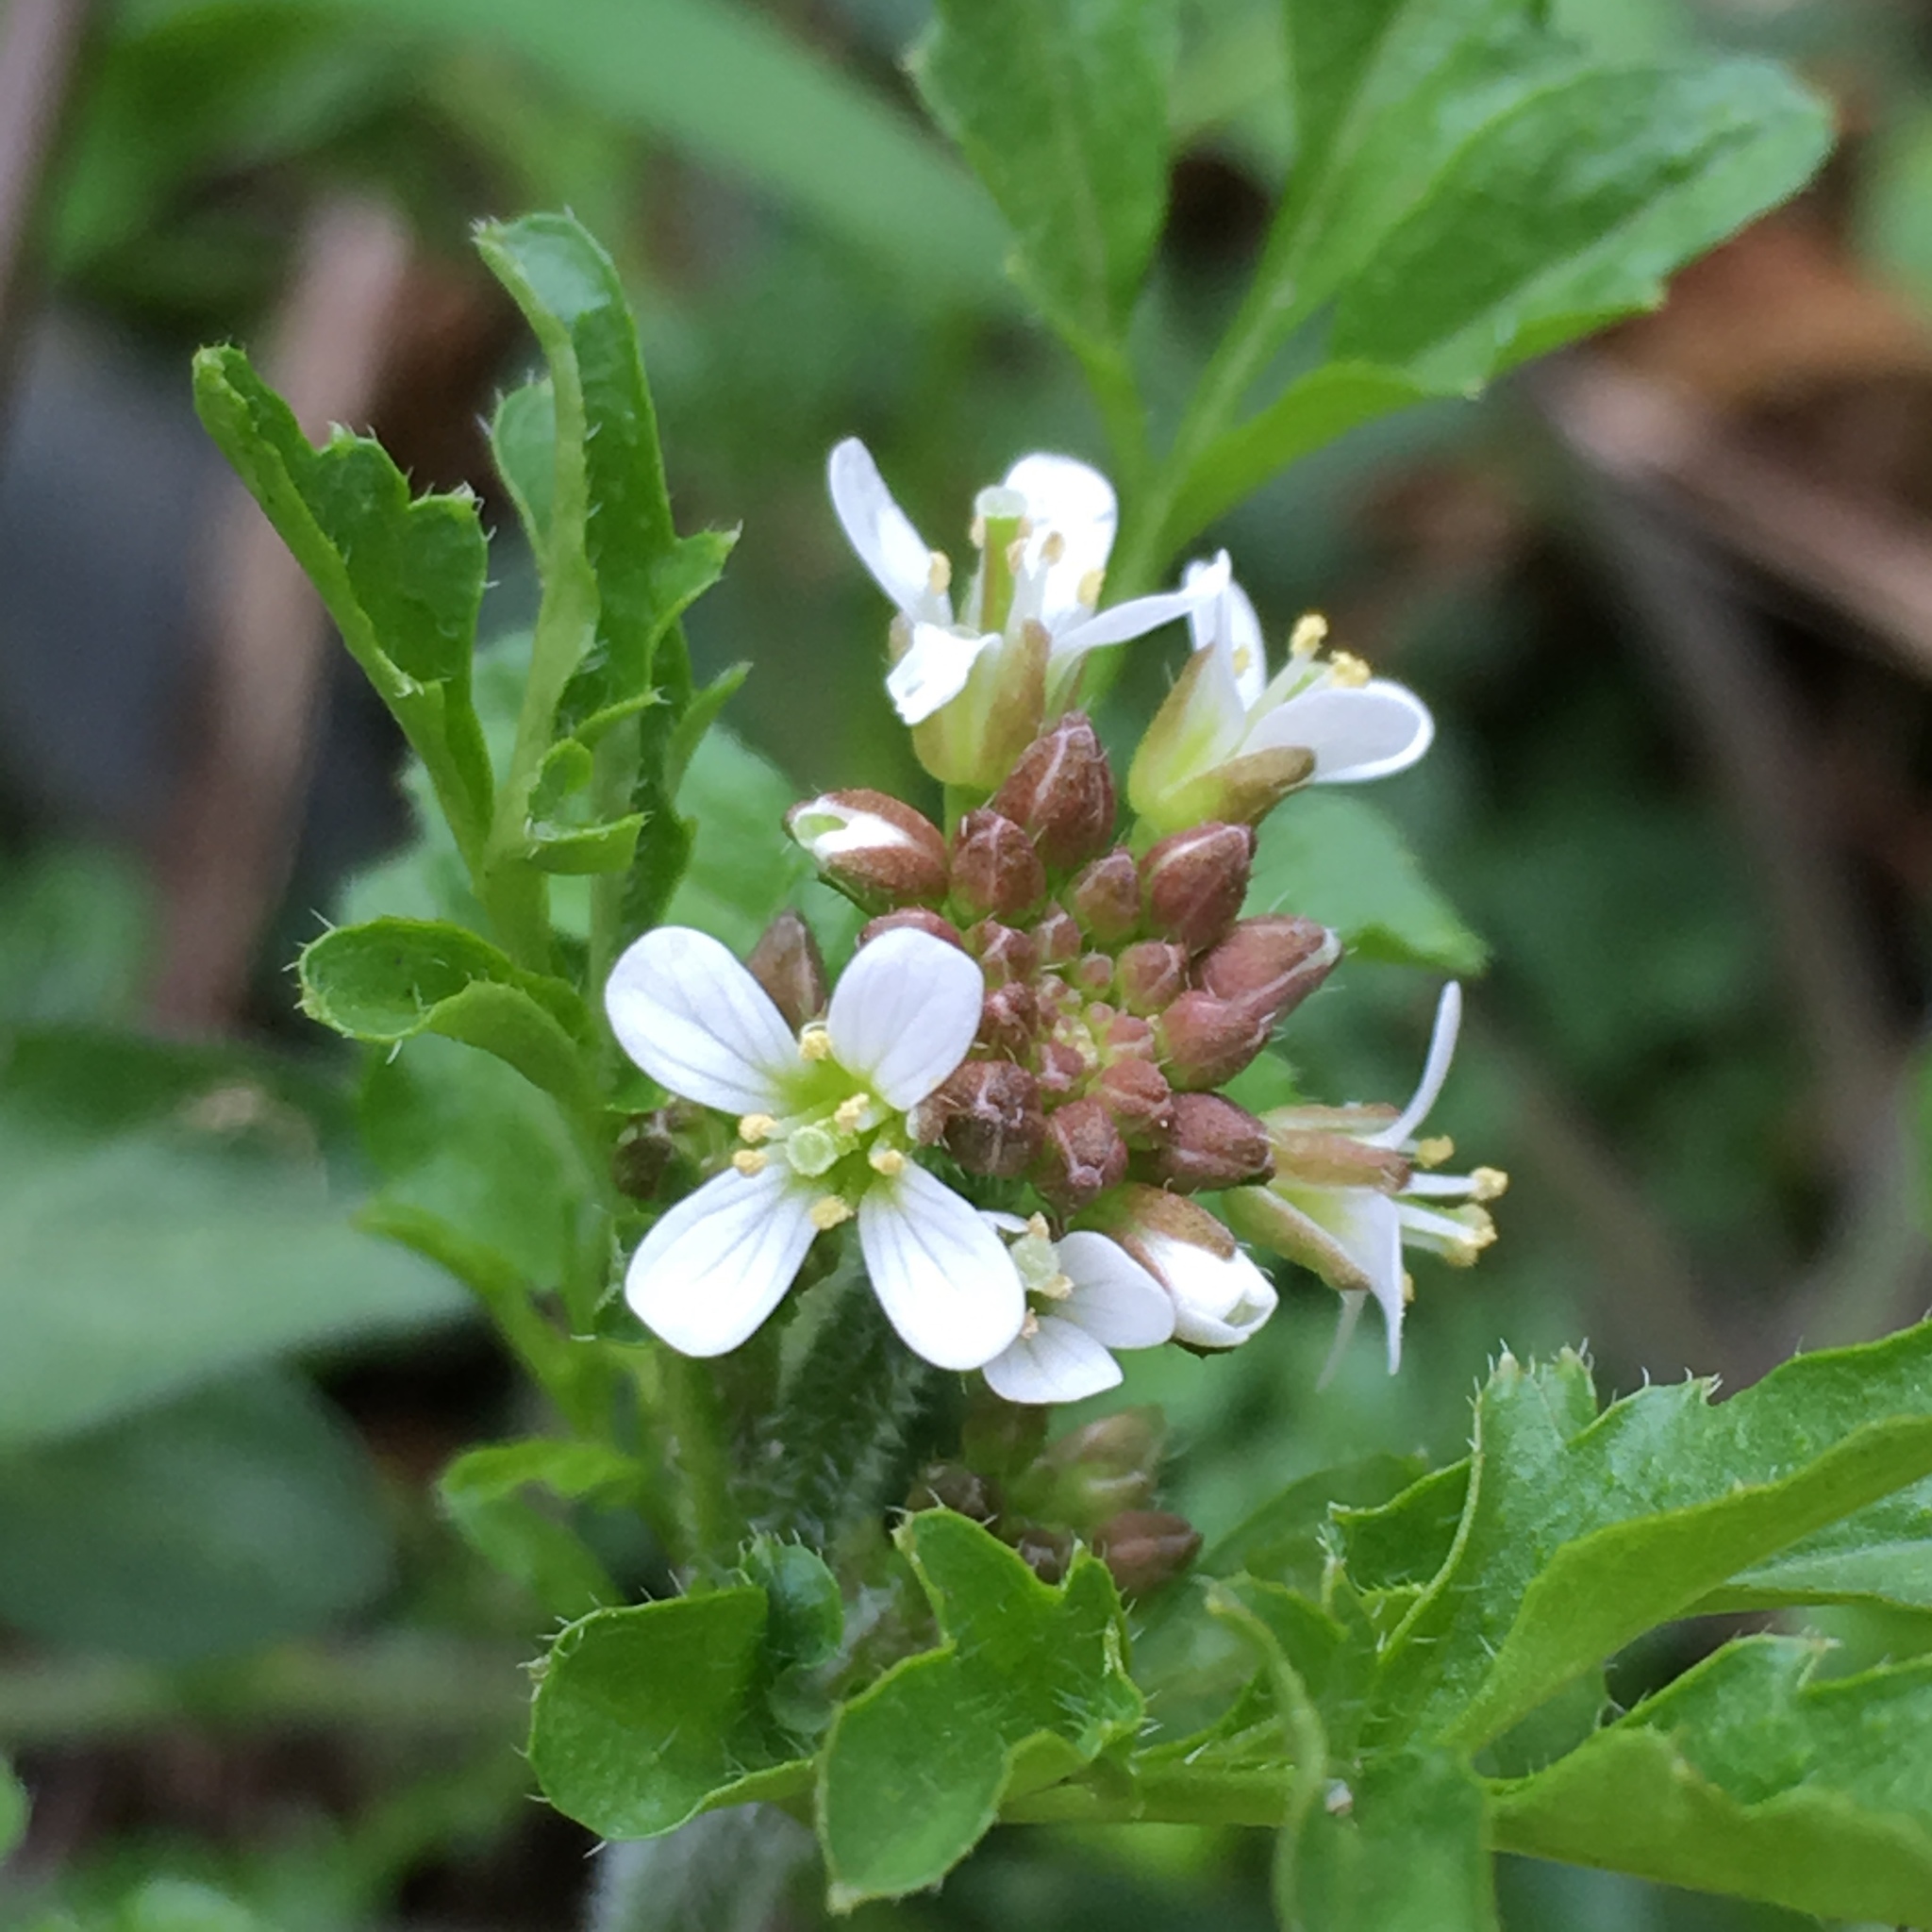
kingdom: Plantae
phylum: Tracheophyta
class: Magnoliopsida
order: Brassicales
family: Brassicaceae
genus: Cardamine
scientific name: Cardamine flexuosa
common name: Woodland bittercress
